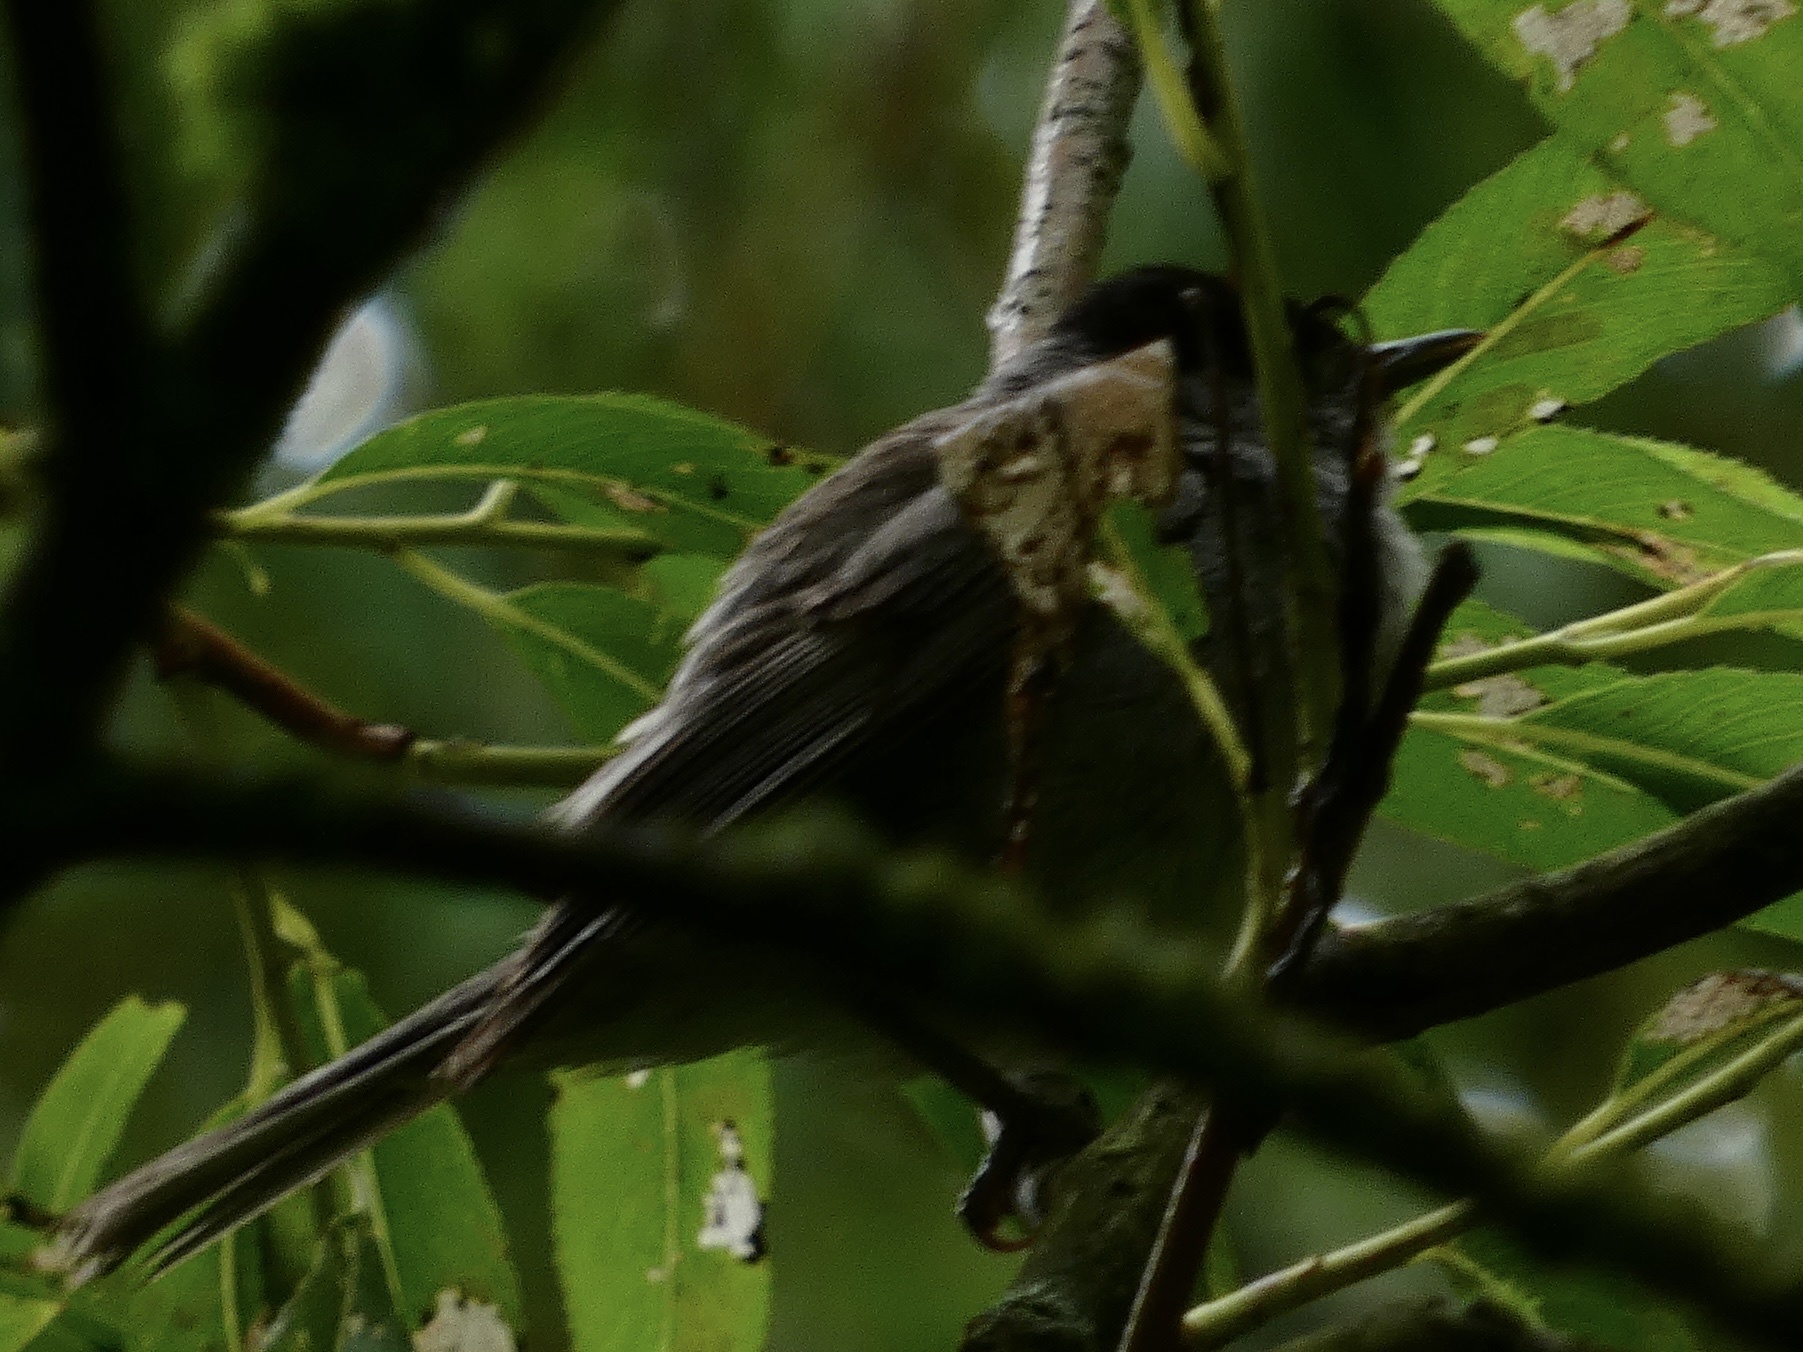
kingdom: Animalia
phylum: Chordata
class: Aves
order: Passeriformes
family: Sylviidae
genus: Sylvia
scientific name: Sylvia atricapilla
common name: Eurasian blackcap
